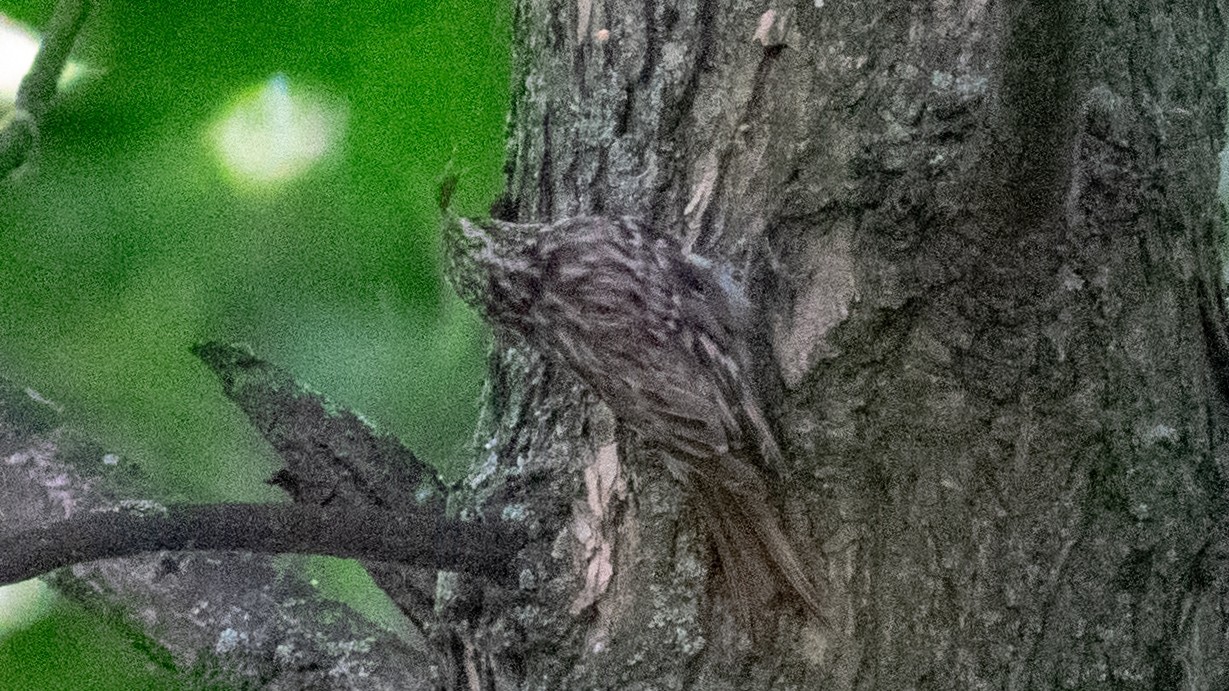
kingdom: Animalia
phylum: Chordata
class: Aves
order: Passeriformes
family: Certhiidae
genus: Certhia
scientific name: Certhia
